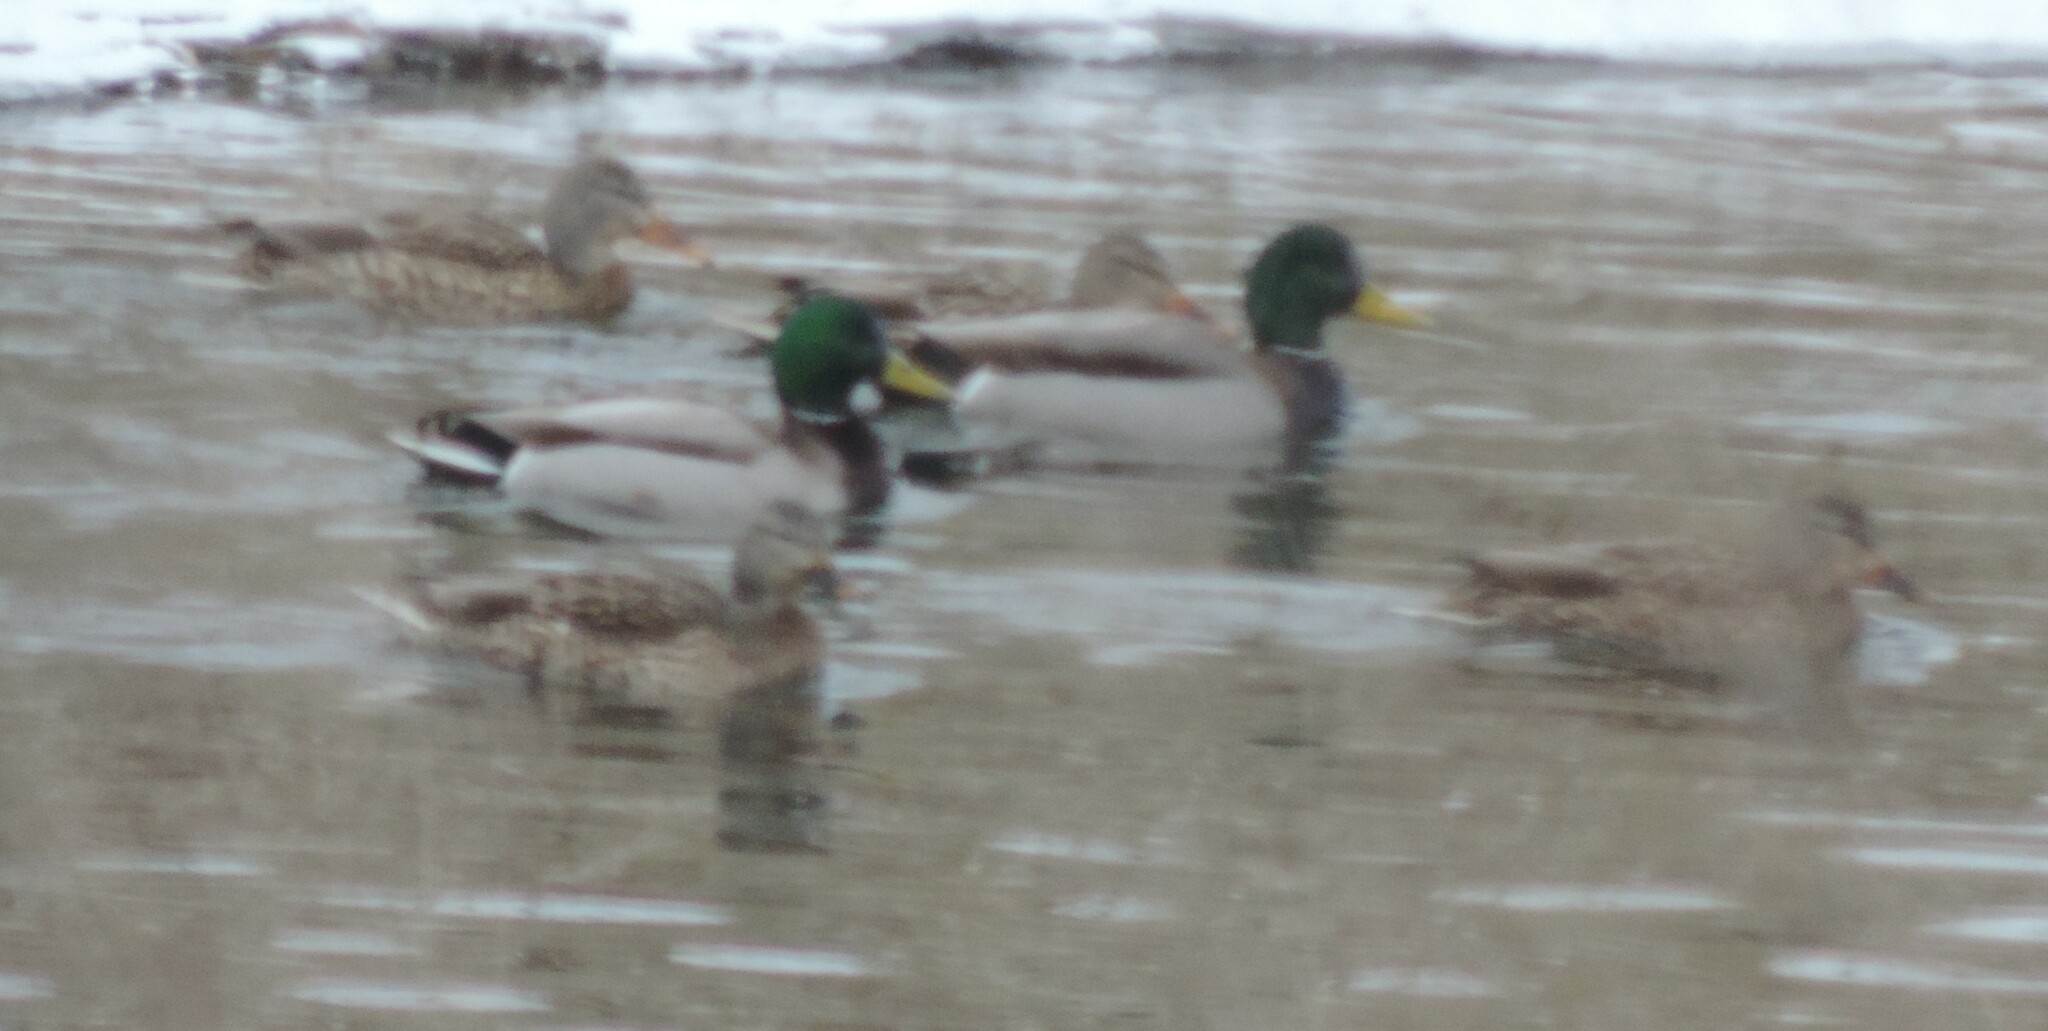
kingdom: Animalia
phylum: Chordata
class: Aves
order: Anseriformes
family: Anatidae
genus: Anas
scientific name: Anas platyrhynchos
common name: Mallard
